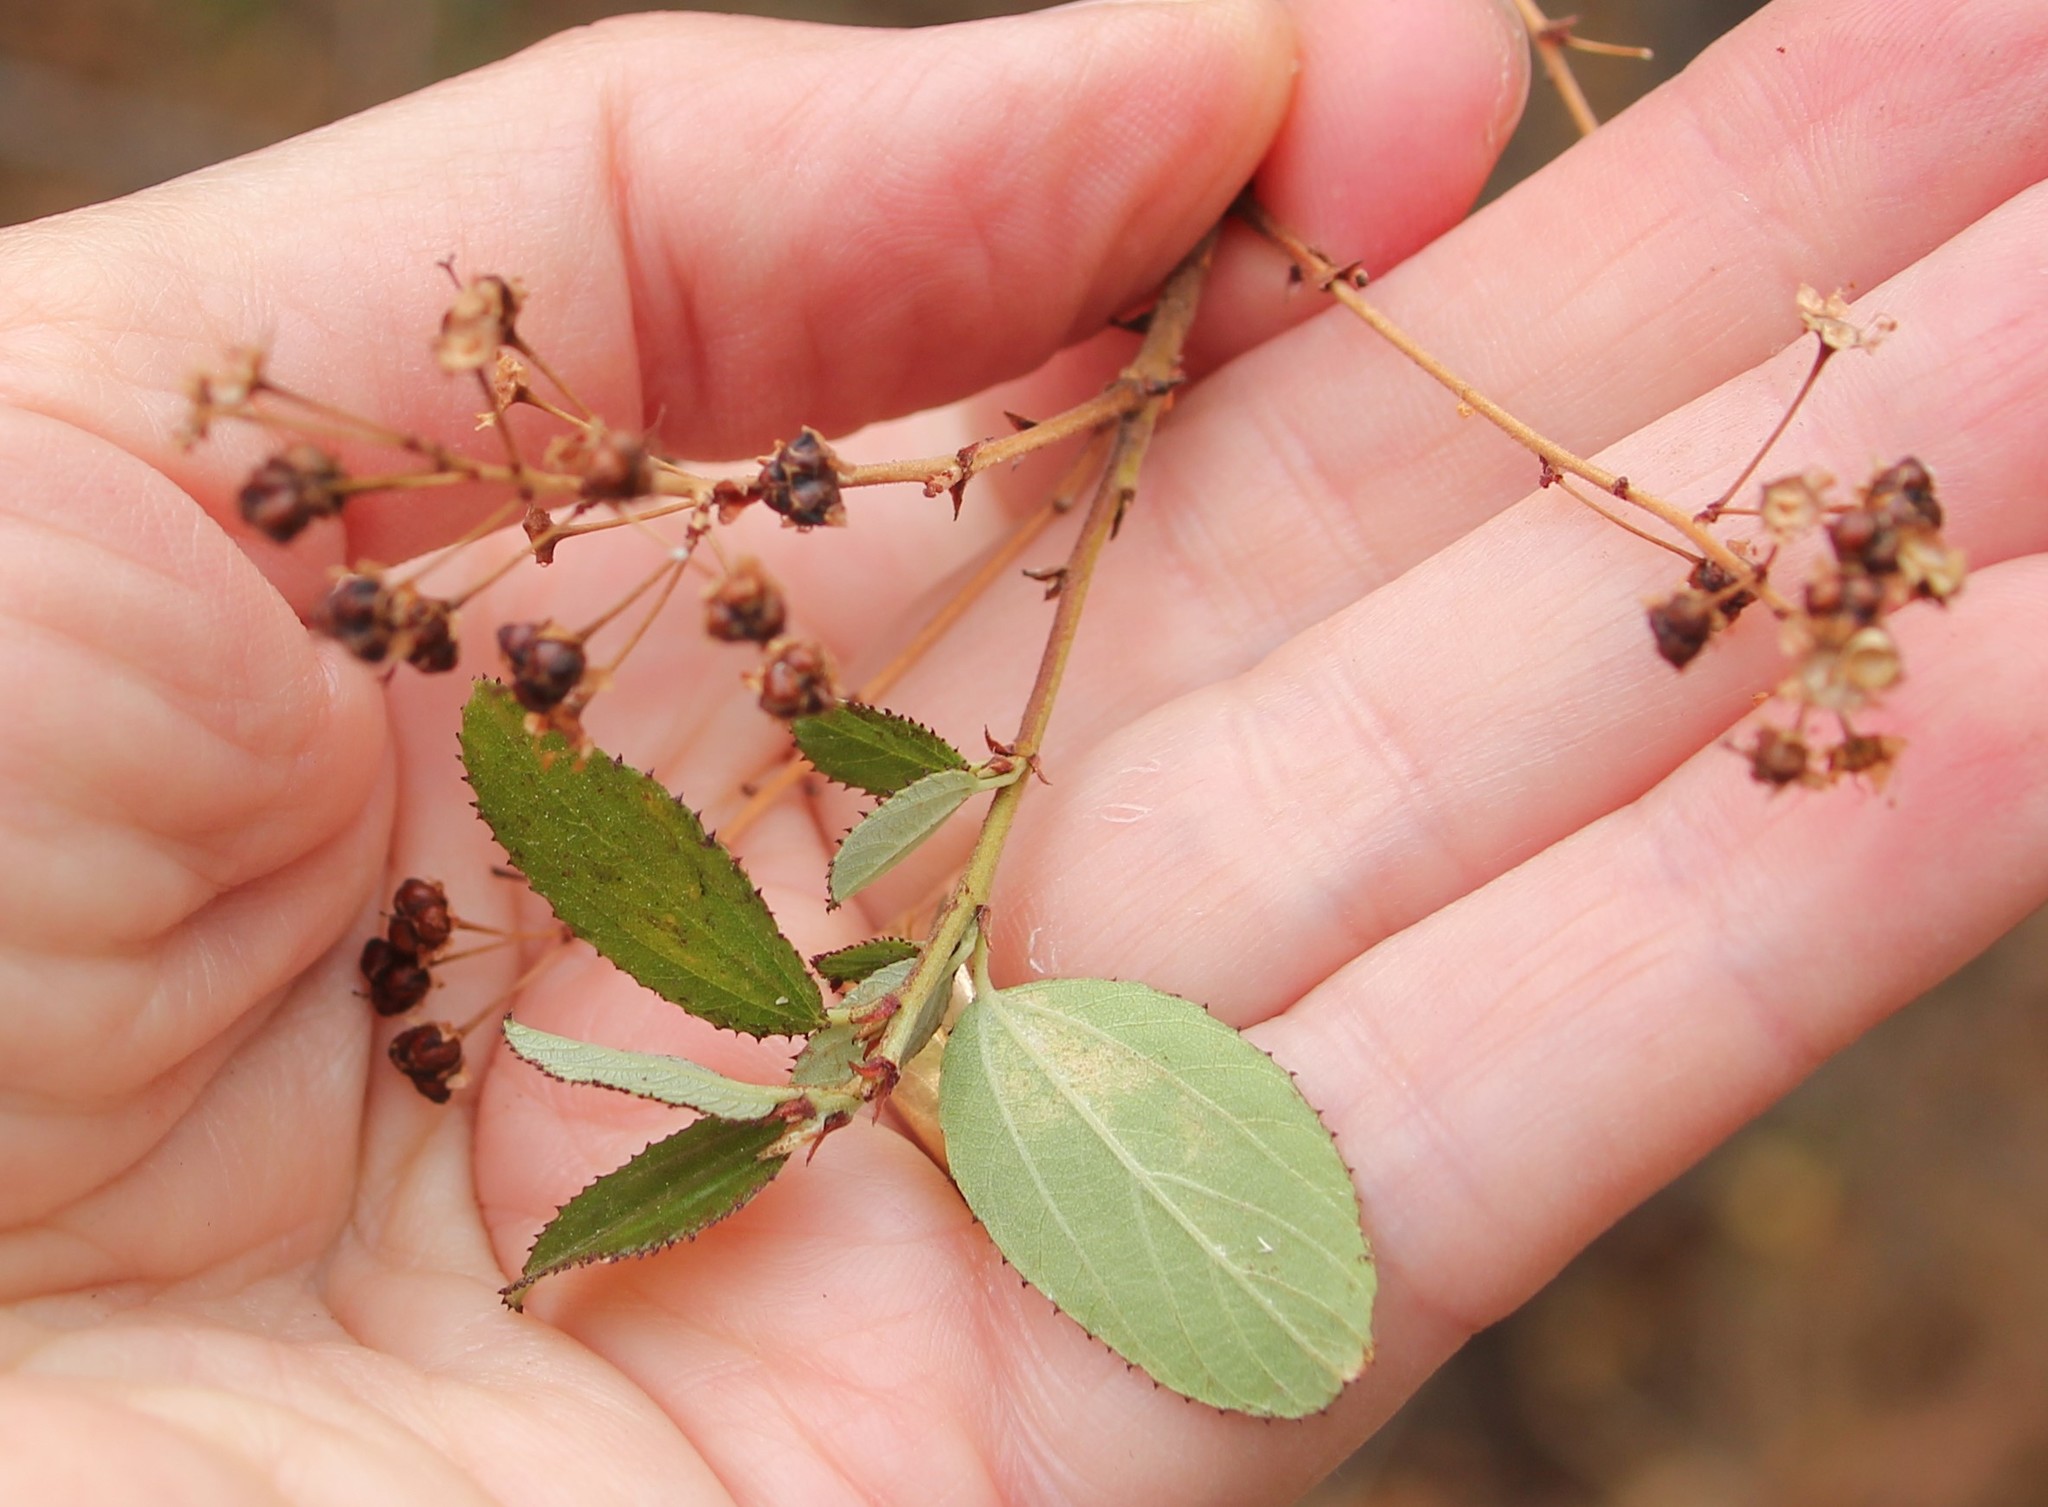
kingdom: Plantae
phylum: Tracheophyta
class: Magnoliopsida
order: Rosales
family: Rhamnaceae
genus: Ceanothus
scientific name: Ceanothus tomentosus
